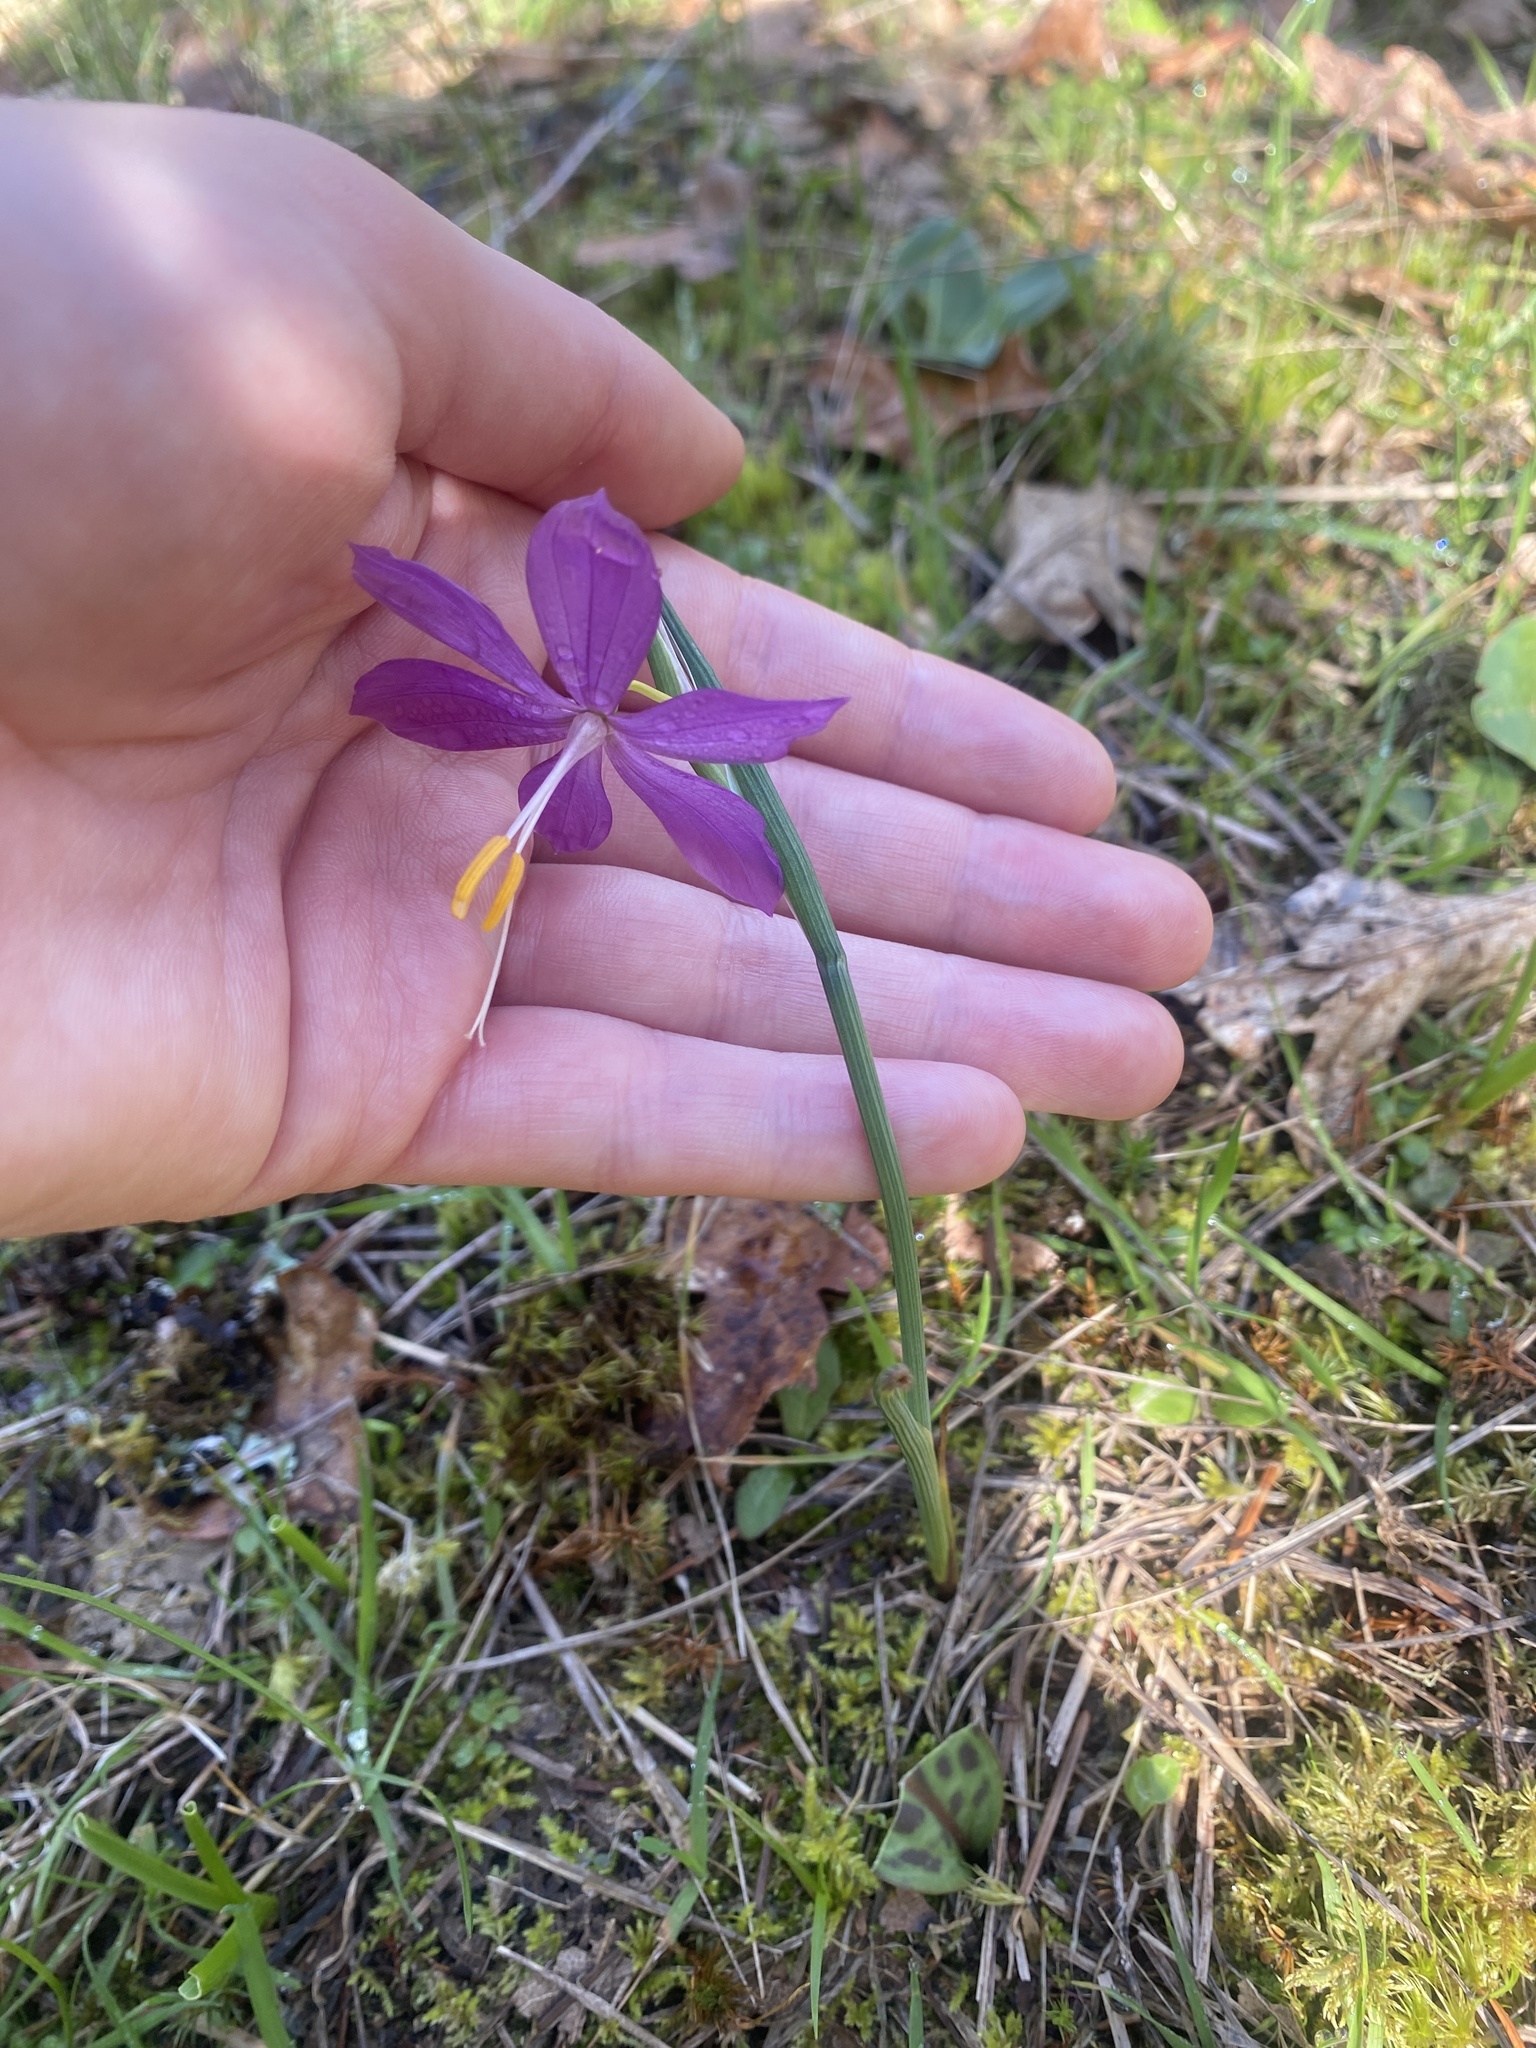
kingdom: Plantae
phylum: Tracheophyta
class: Liliopsida
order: Asparagales
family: Iridaceae
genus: Olsynium
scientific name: Olsynium douglasii
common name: Douglas' grasswidow
